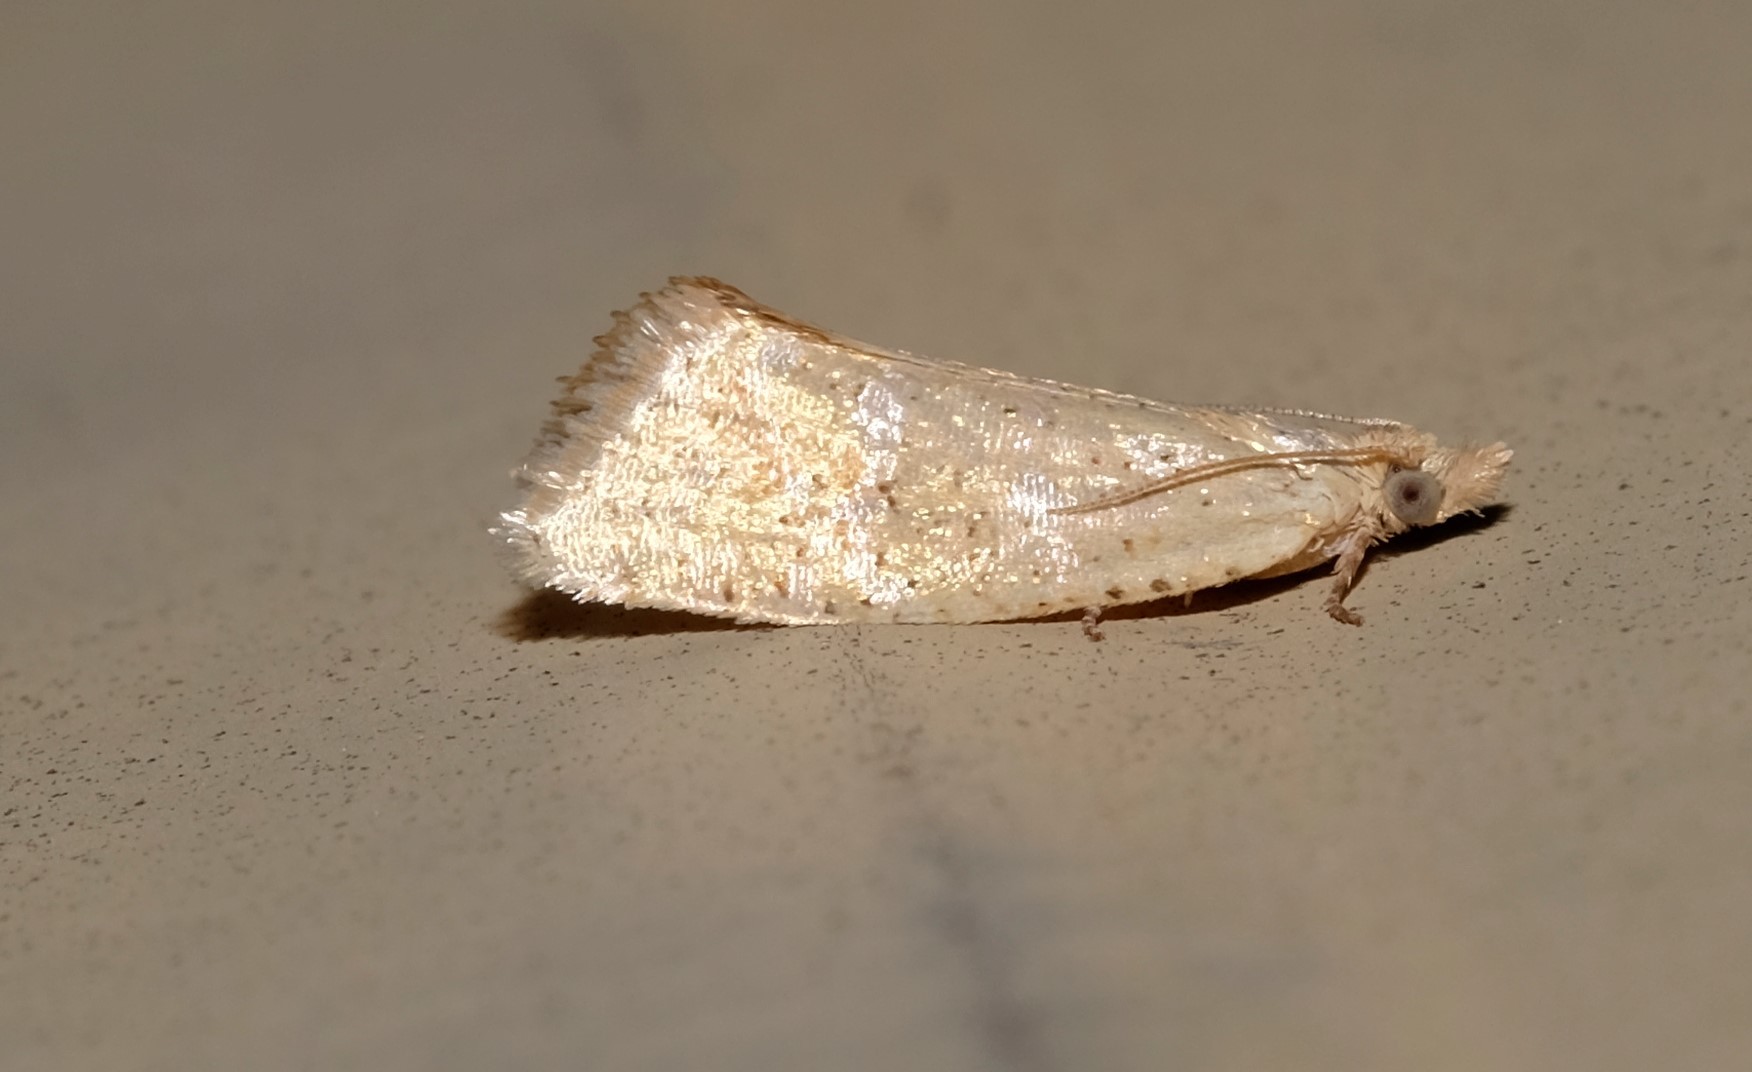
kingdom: Animalia
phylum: Arthropoda
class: Insecta
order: Lepidoptera
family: Tortricidae
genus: Capua
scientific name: Capua dyslecta
